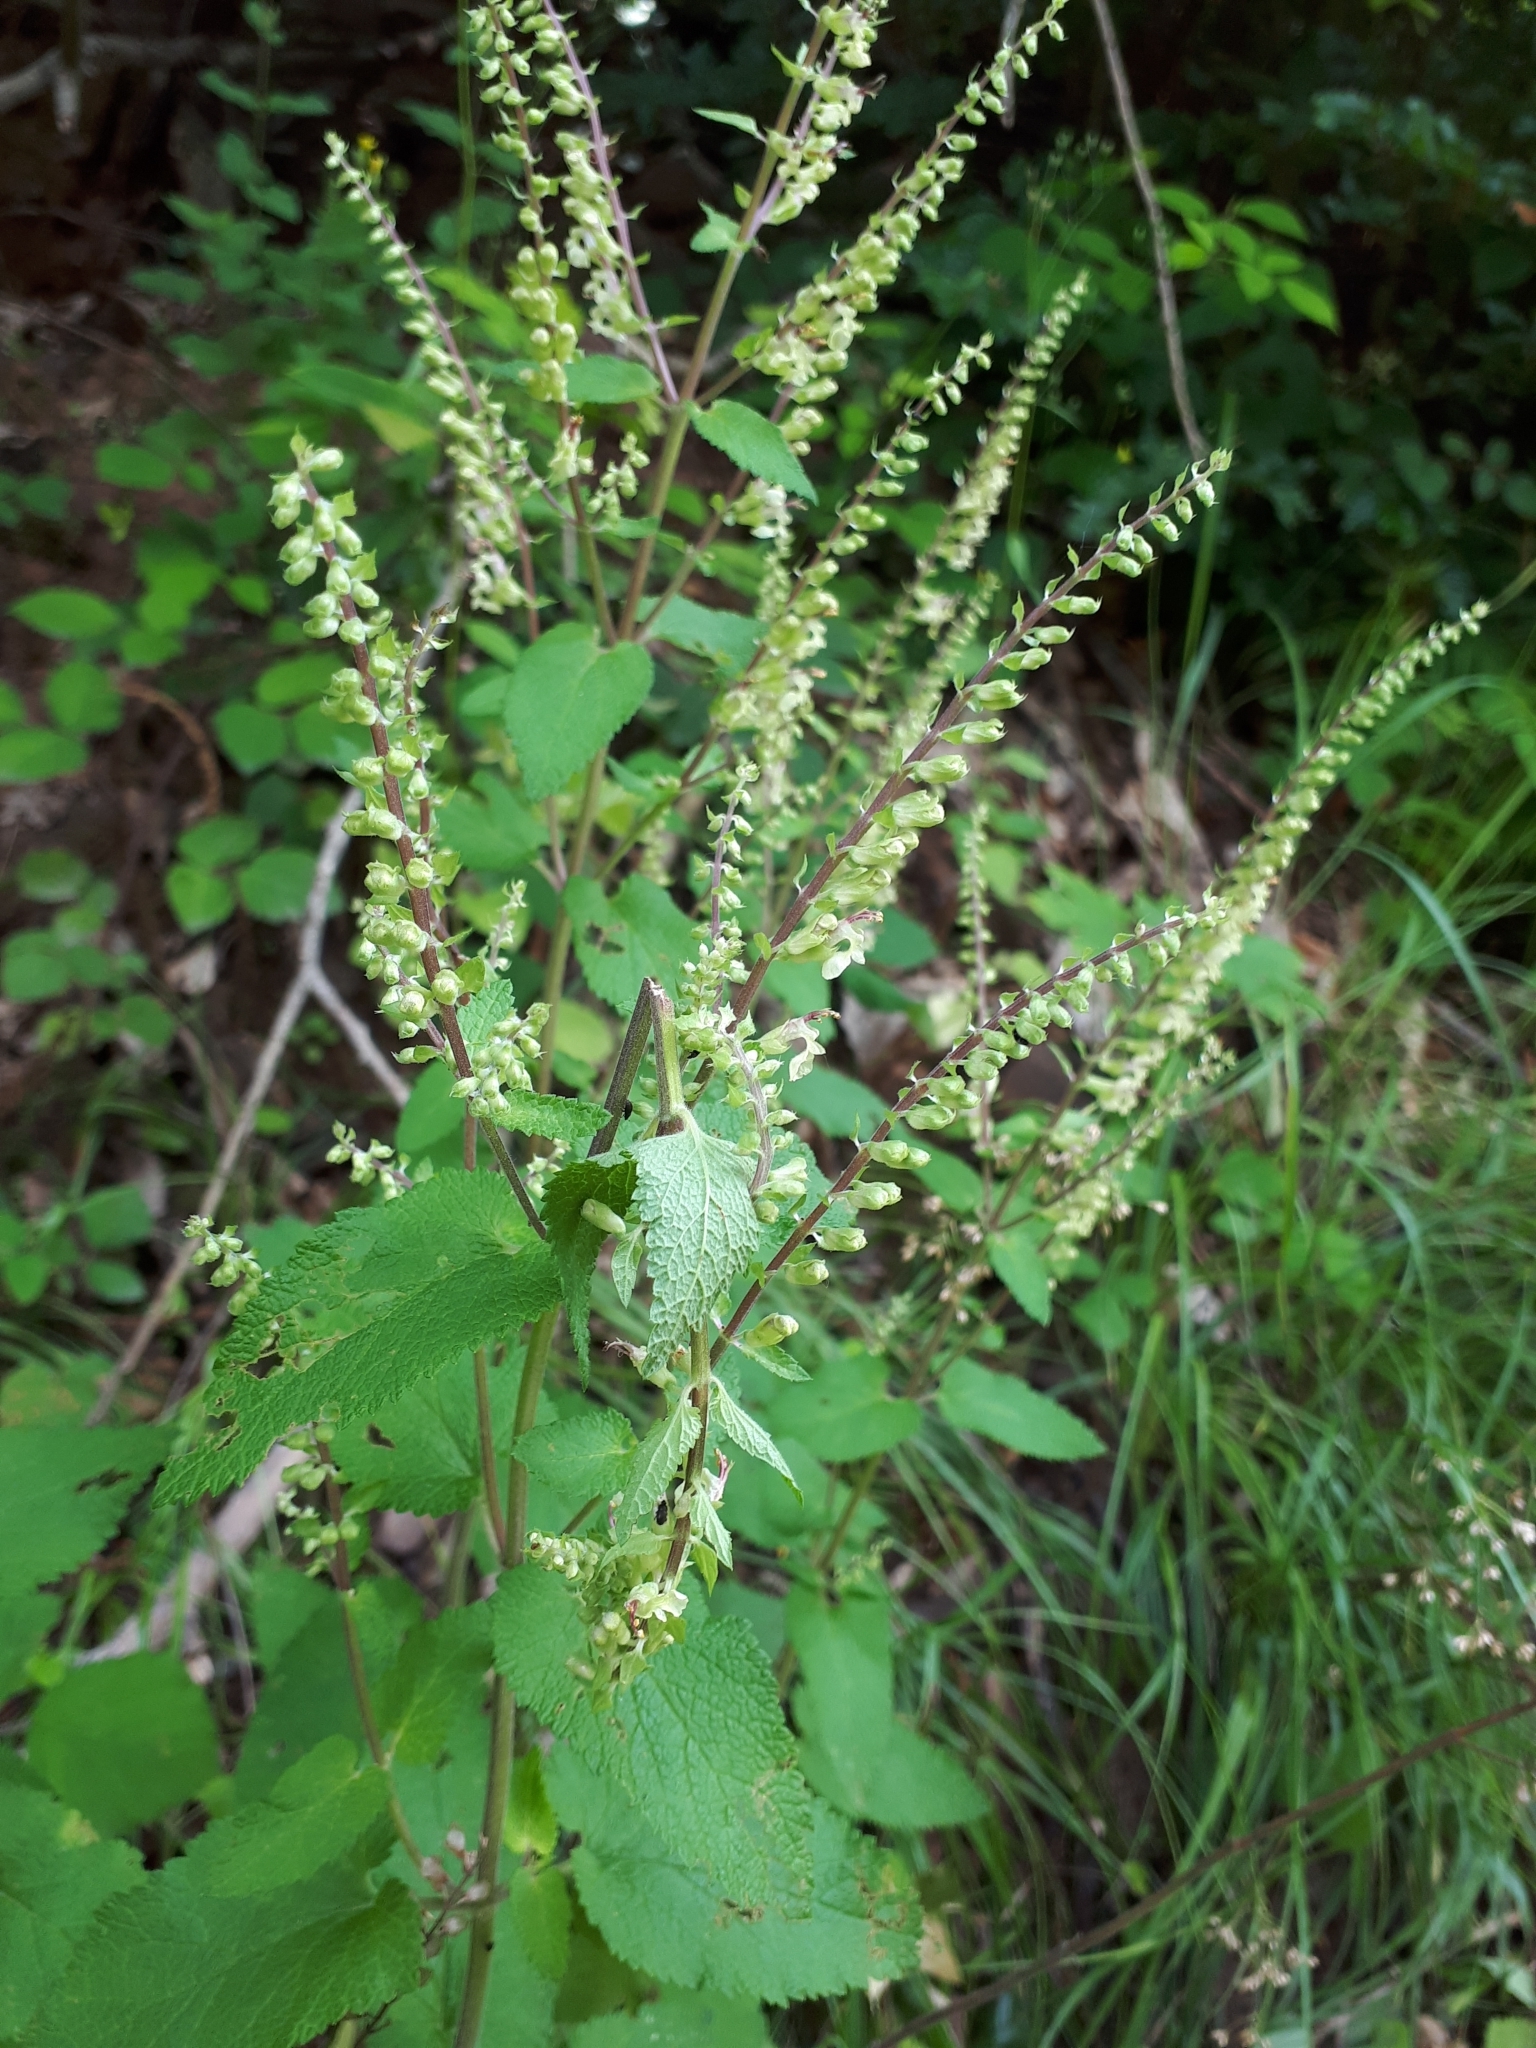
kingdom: Plantae
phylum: Tracheophyta
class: Magnoliopsida
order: Lamiales
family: Lamiaceae
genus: Teucrium
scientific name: Teucrium scorodonia
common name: Woodland germander
